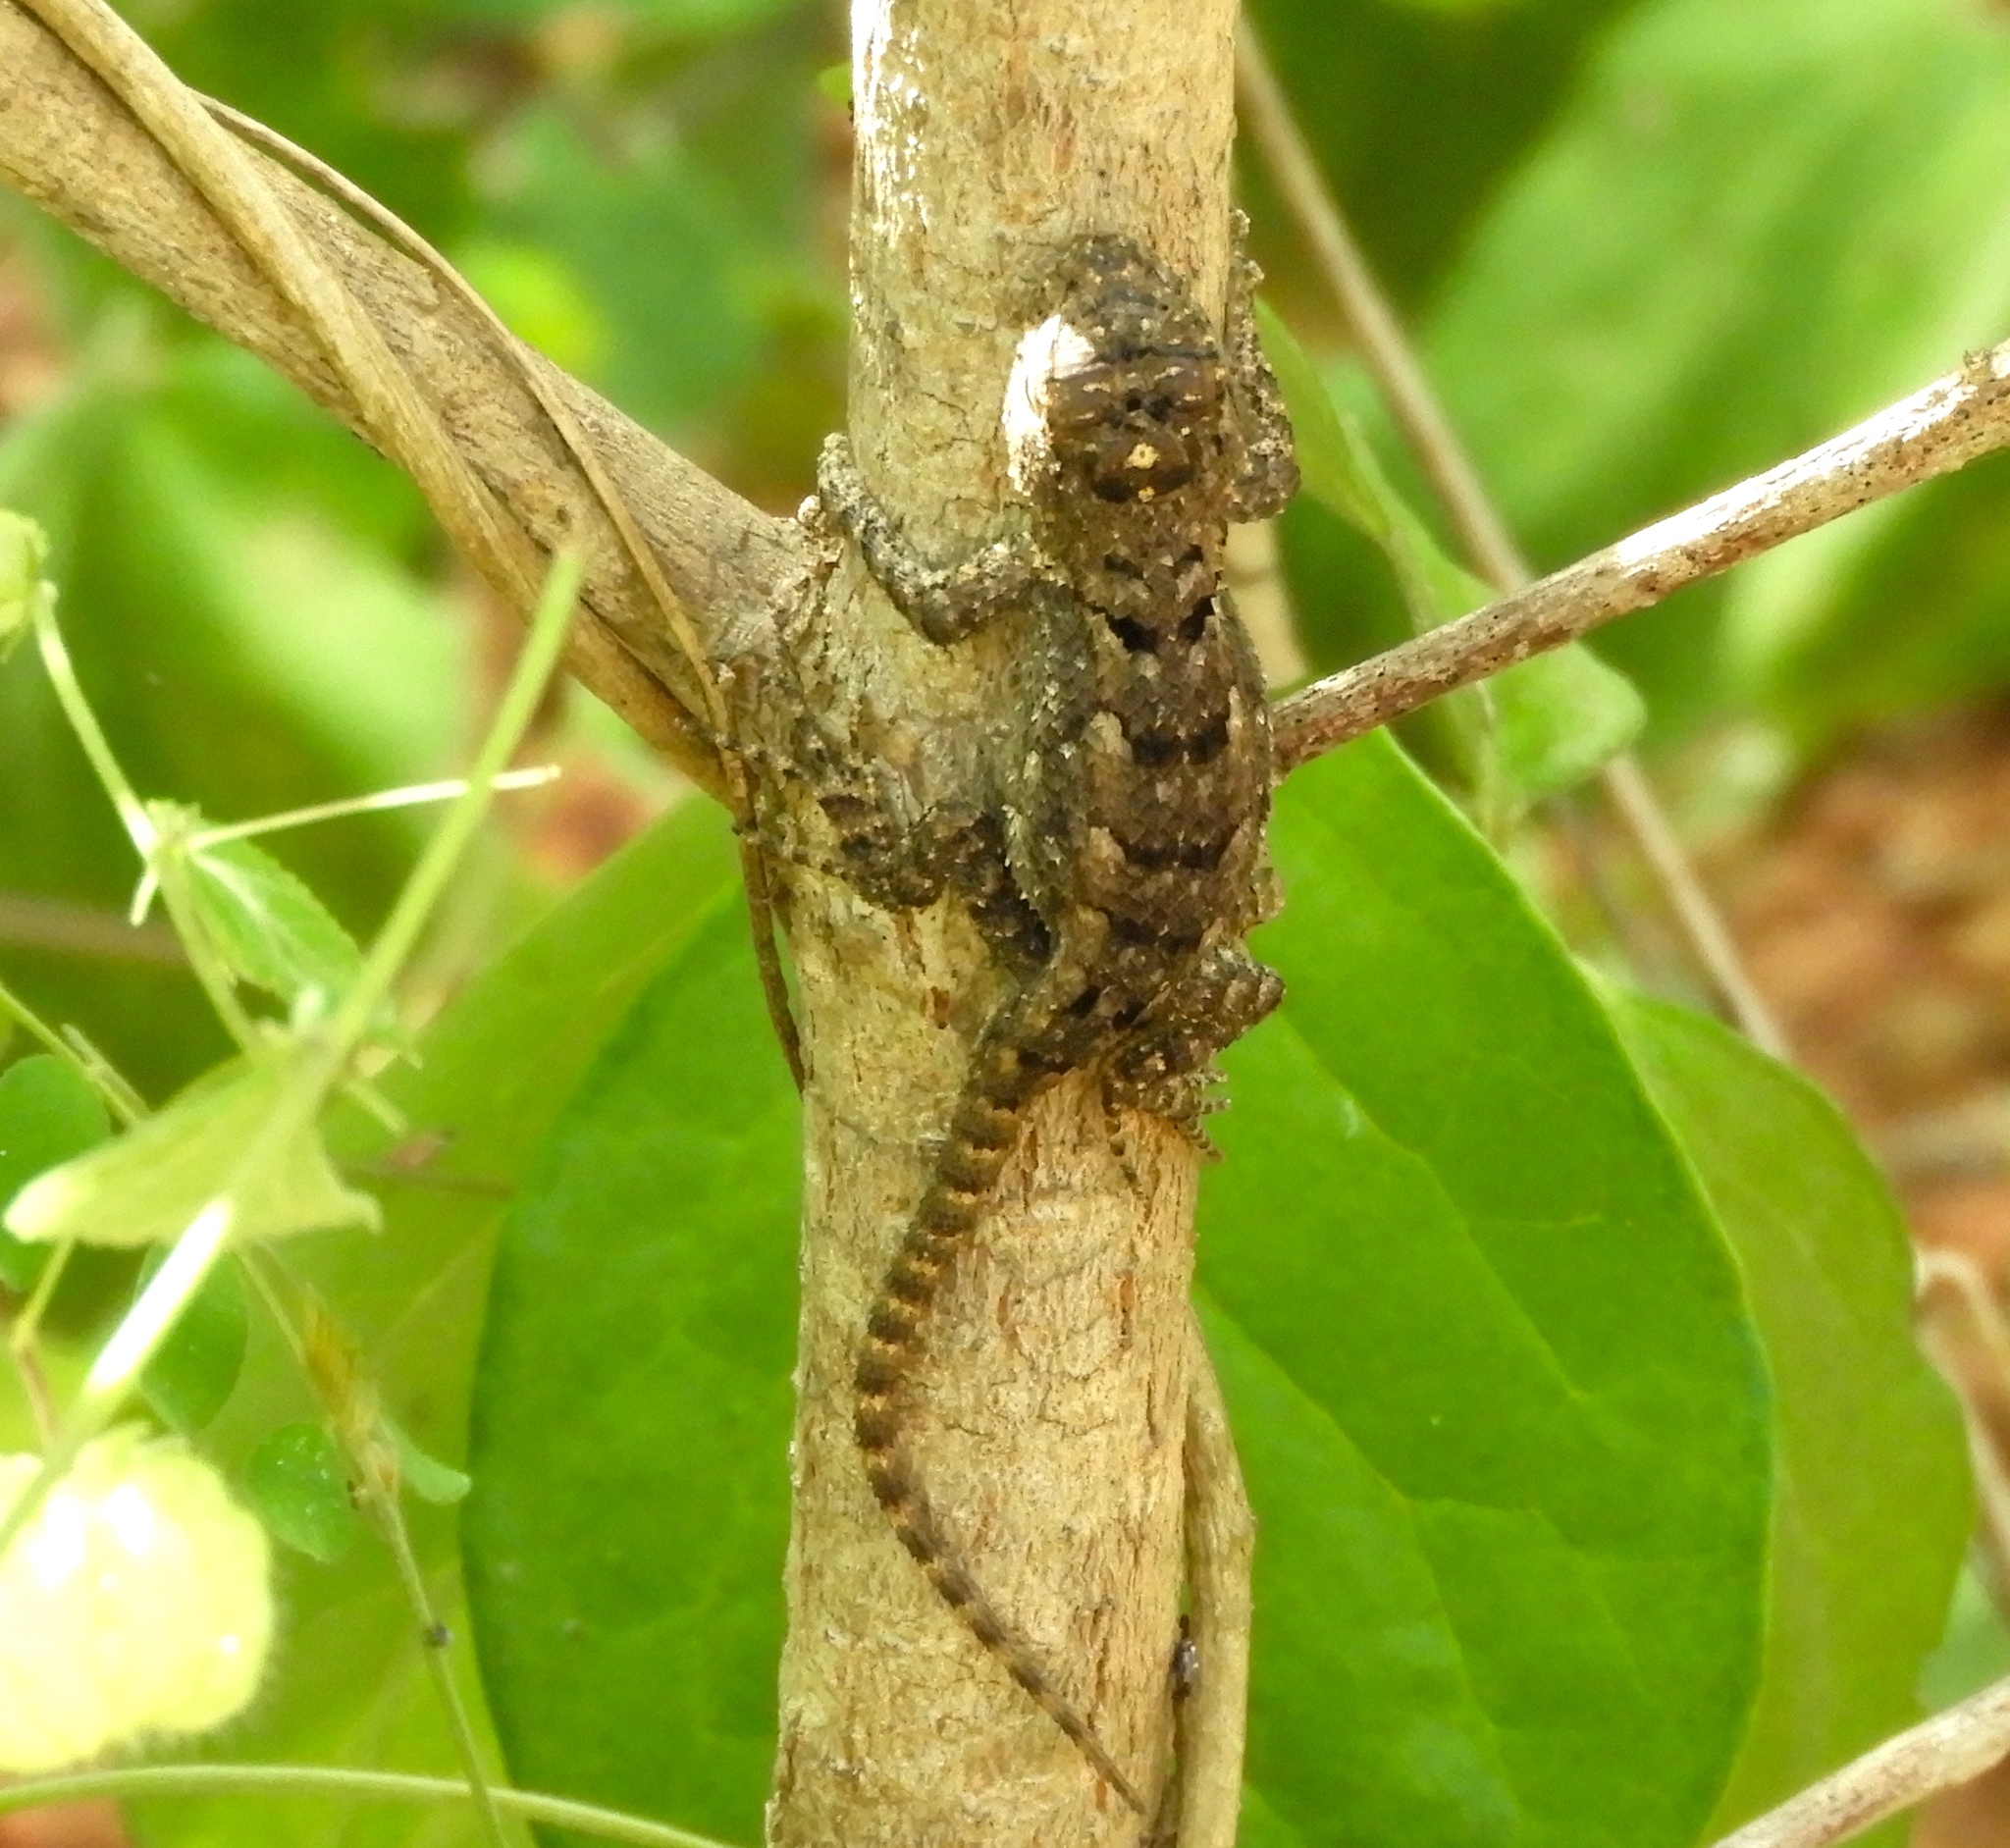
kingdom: Animalia
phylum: Chordata
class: Squamata
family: Phrynosomatidae
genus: Sceloporus
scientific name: Sceloporus clarkii
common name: Clark's spiny lizard
